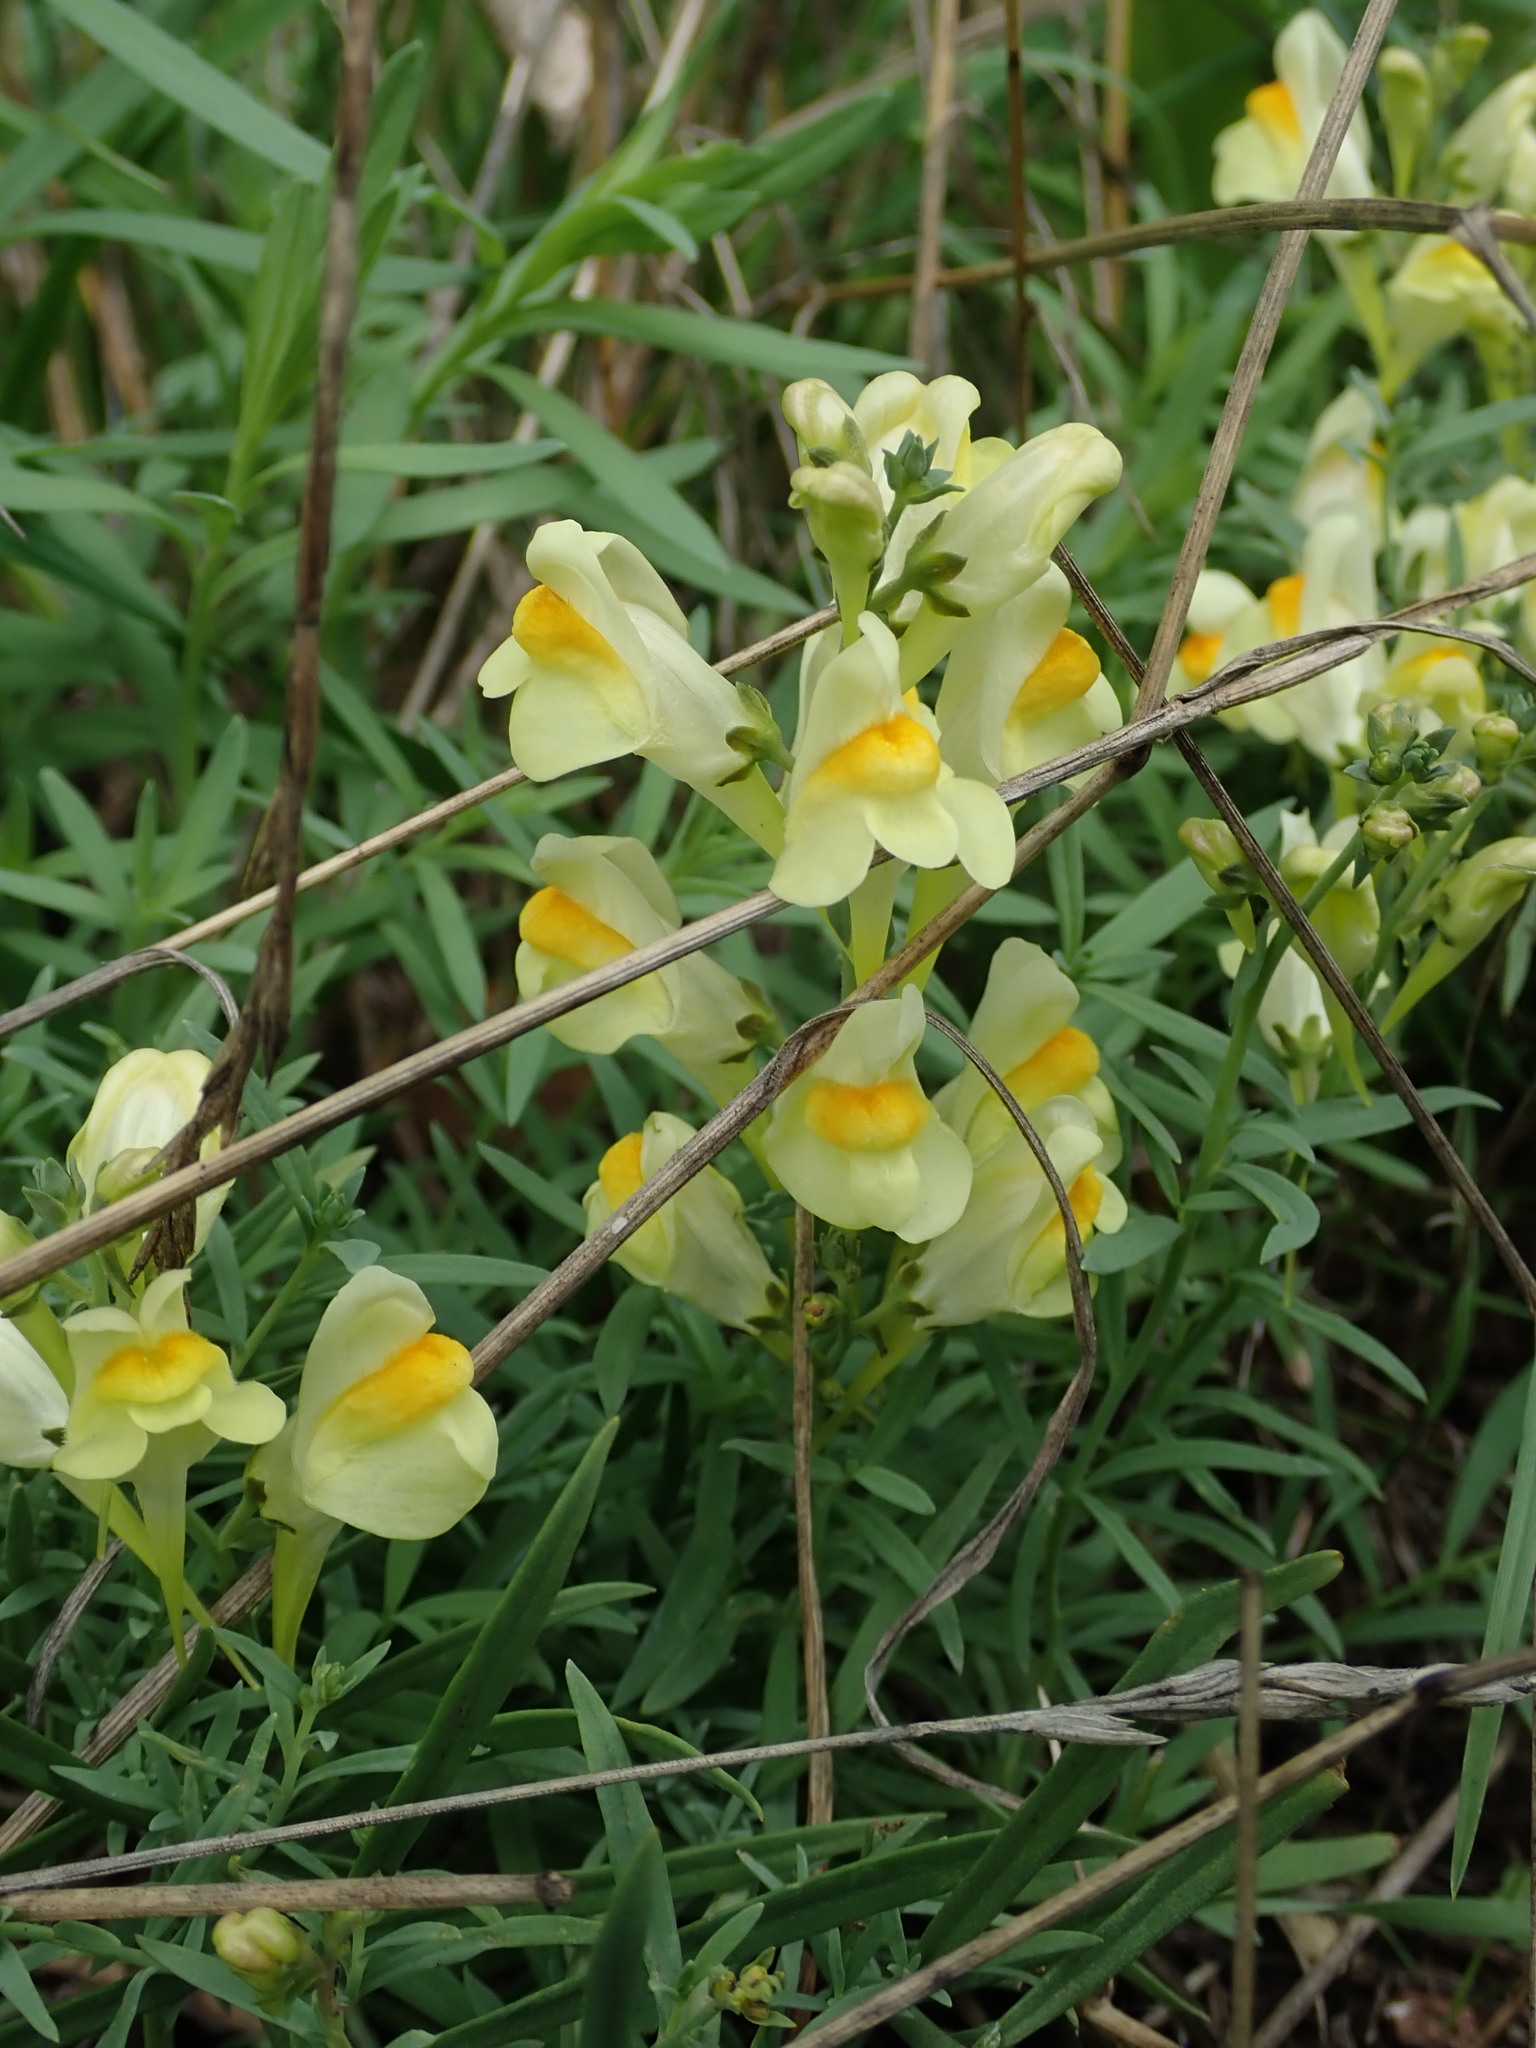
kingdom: Plantae
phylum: Tracheophyta
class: Magnoliopsida
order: Lamiales
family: Plantaginaceae
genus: Linaria
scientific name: Linaria vulgaris
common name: Butter and eggs
